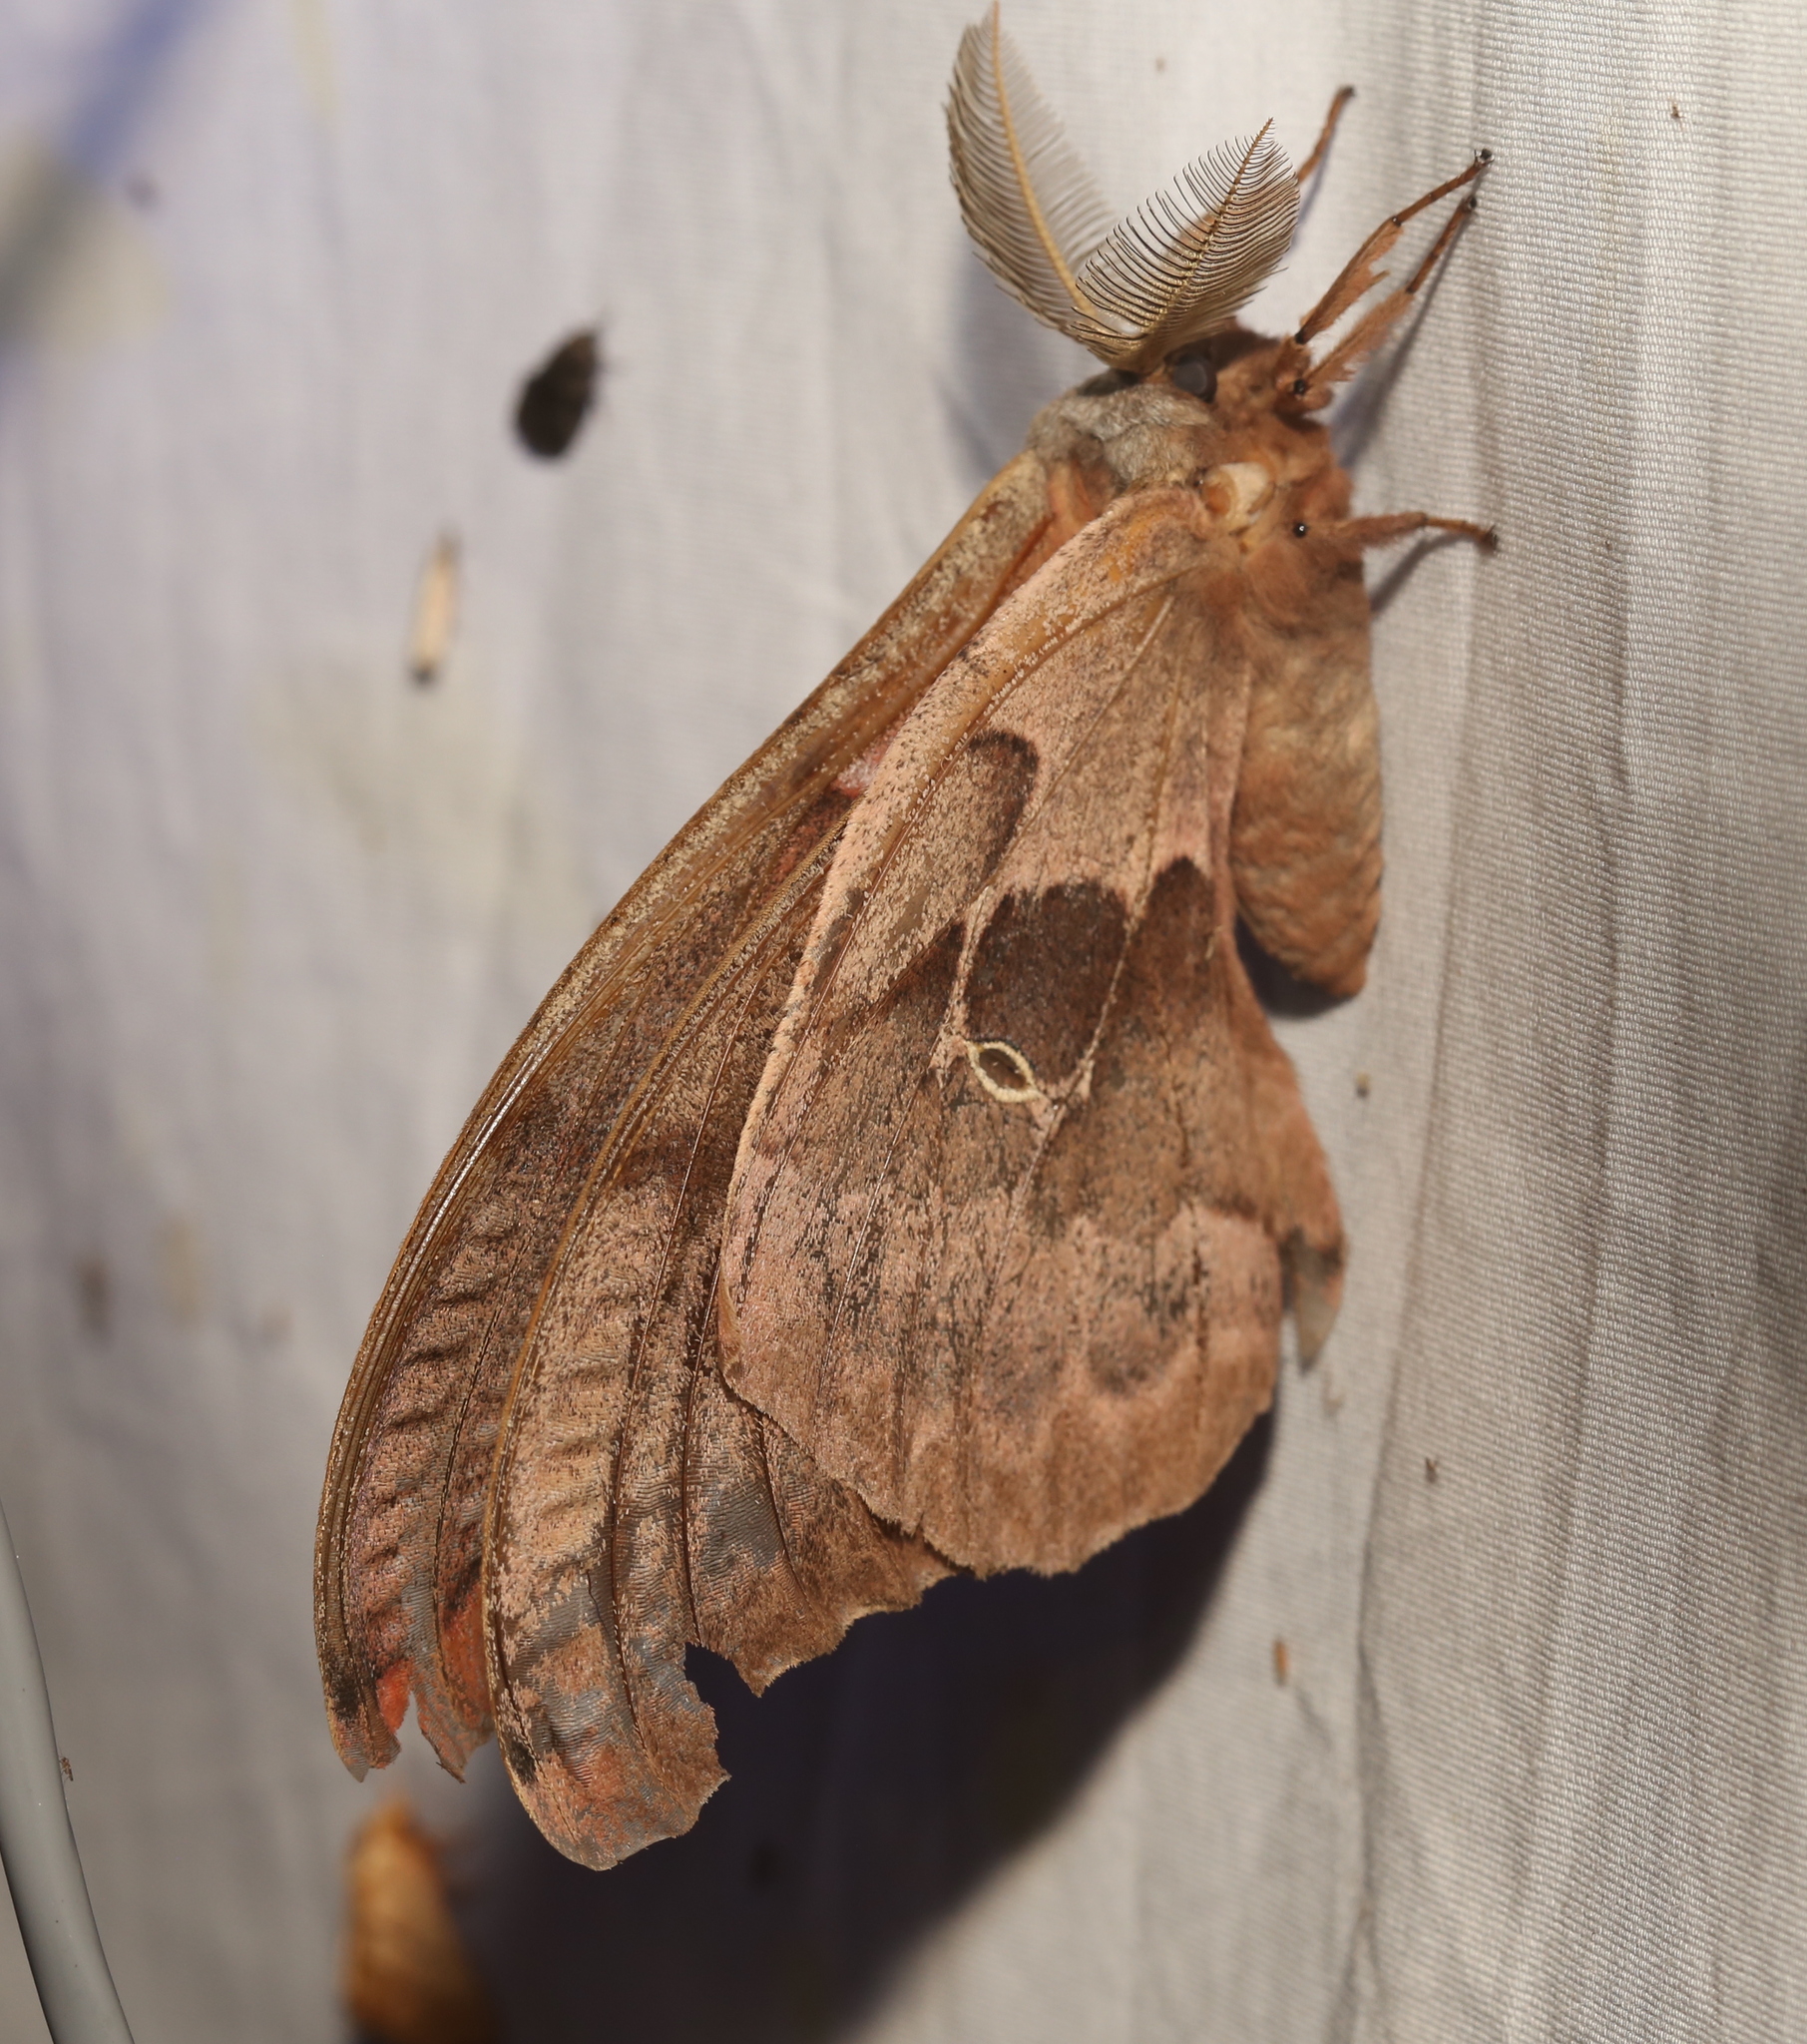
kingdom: Animalia
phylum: Arthropoda
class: Insecta
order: Lepidoptera
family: Saturniidae
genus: Antheraea
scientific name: Antheraea polyphemus
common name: Polyphemus moth
